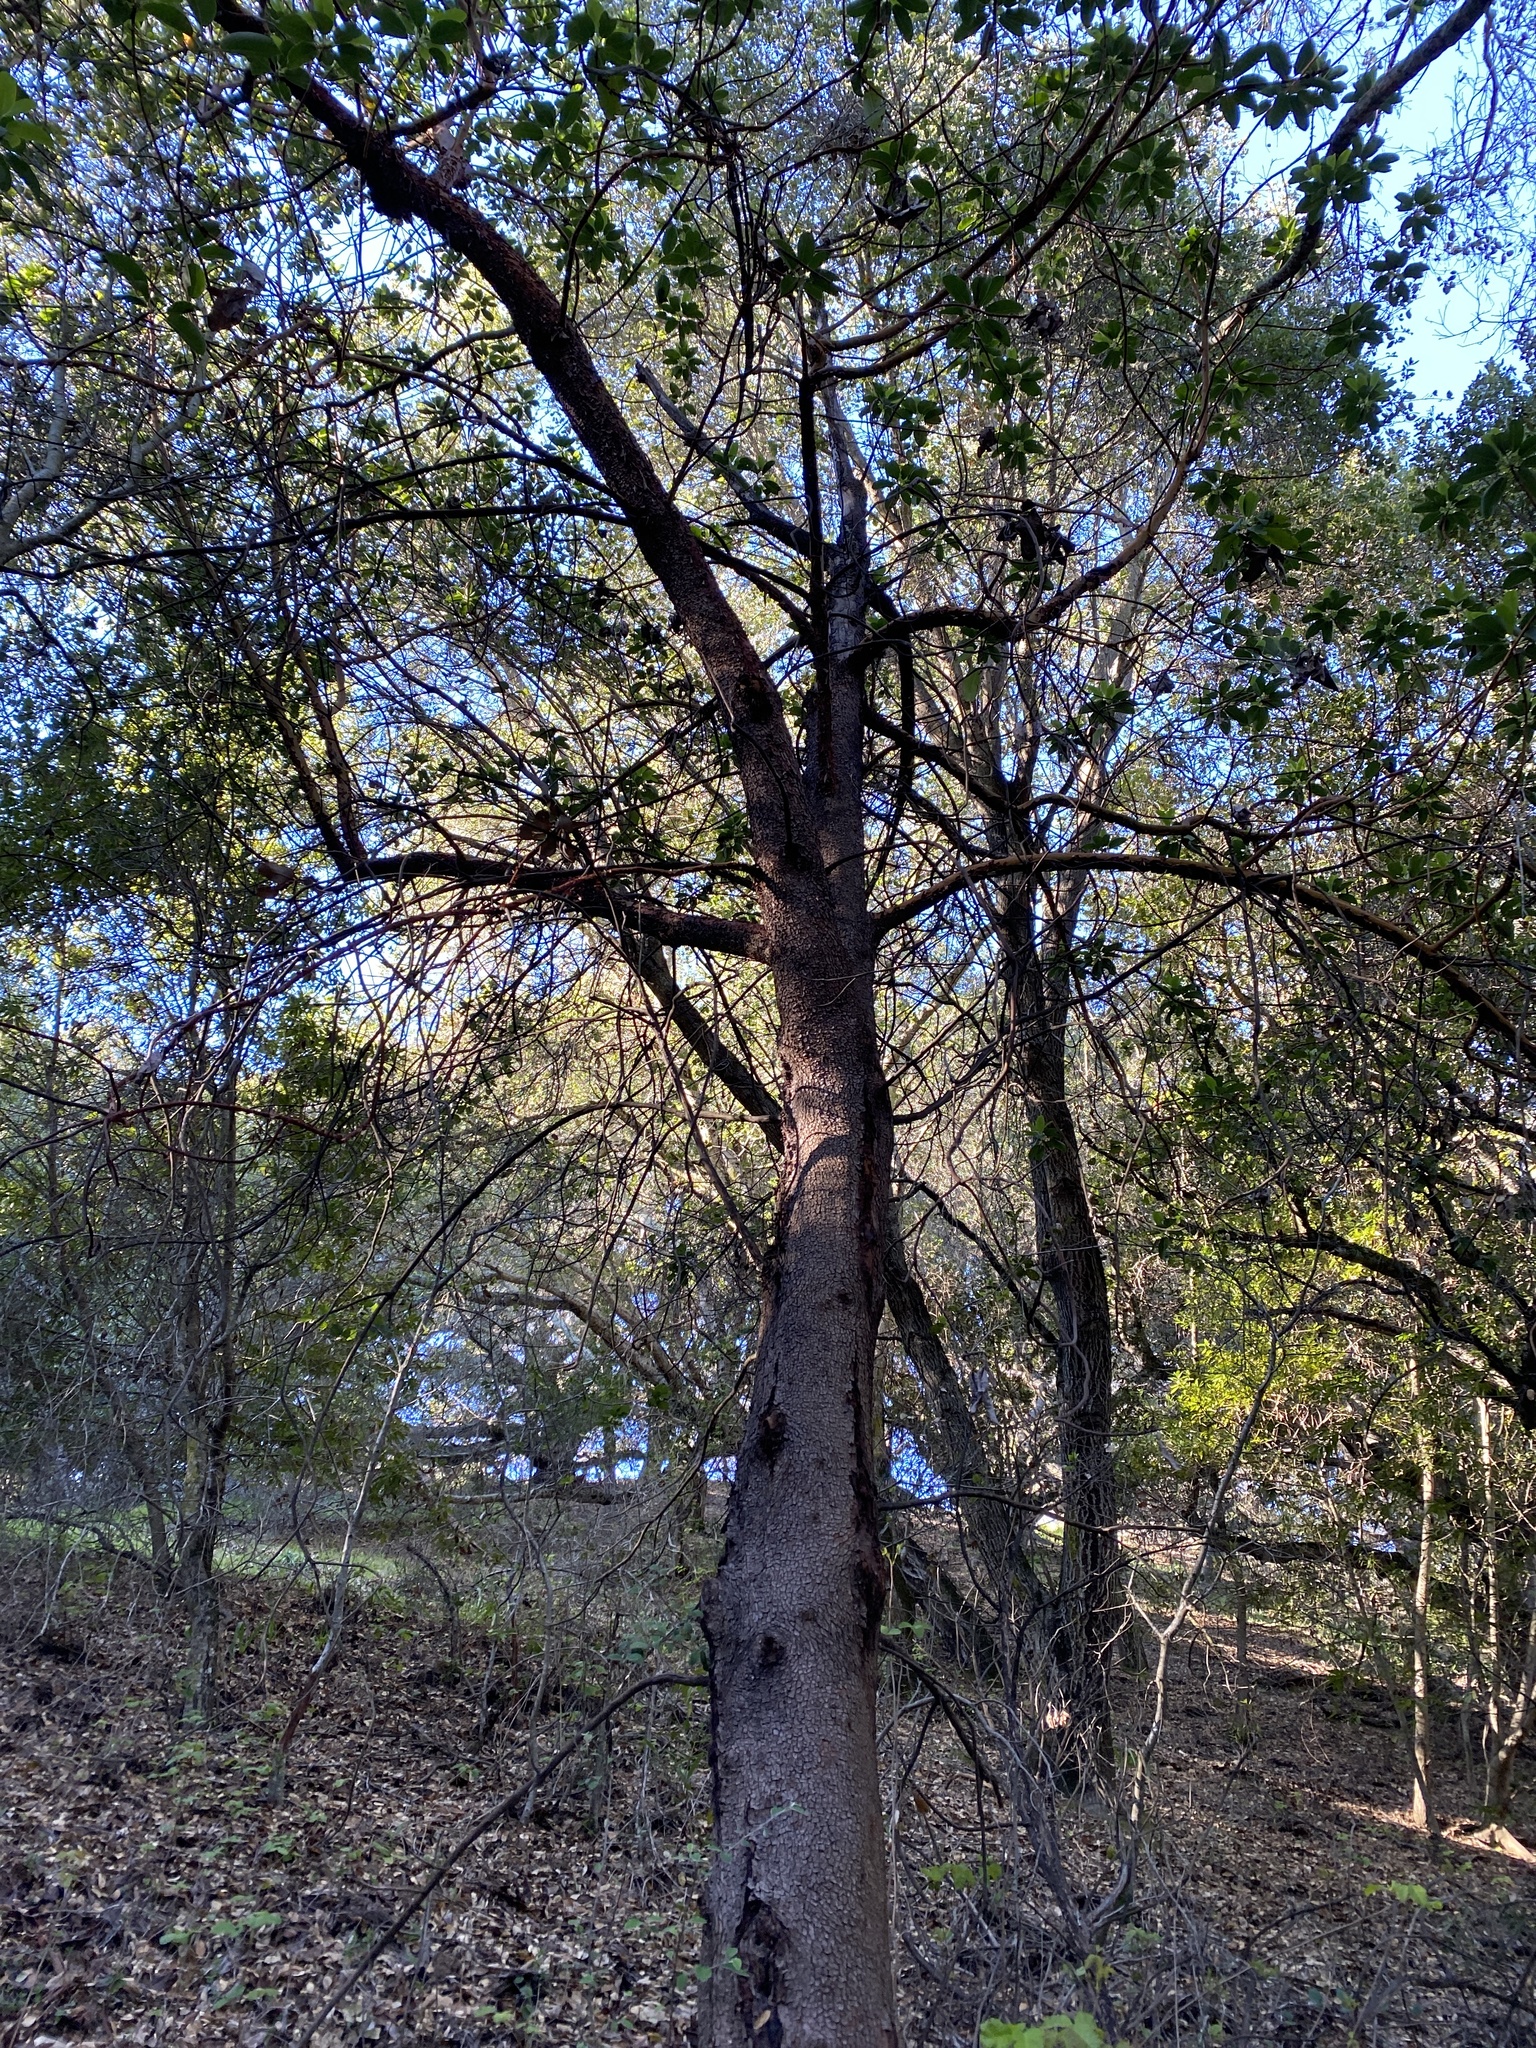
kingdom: Plantae
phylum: Tracheophyta
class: Magnoliopsida
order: Ericales
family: Ericaceae
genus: Arbutus
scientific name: Arbutus menziesii
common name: Pacific madrone
